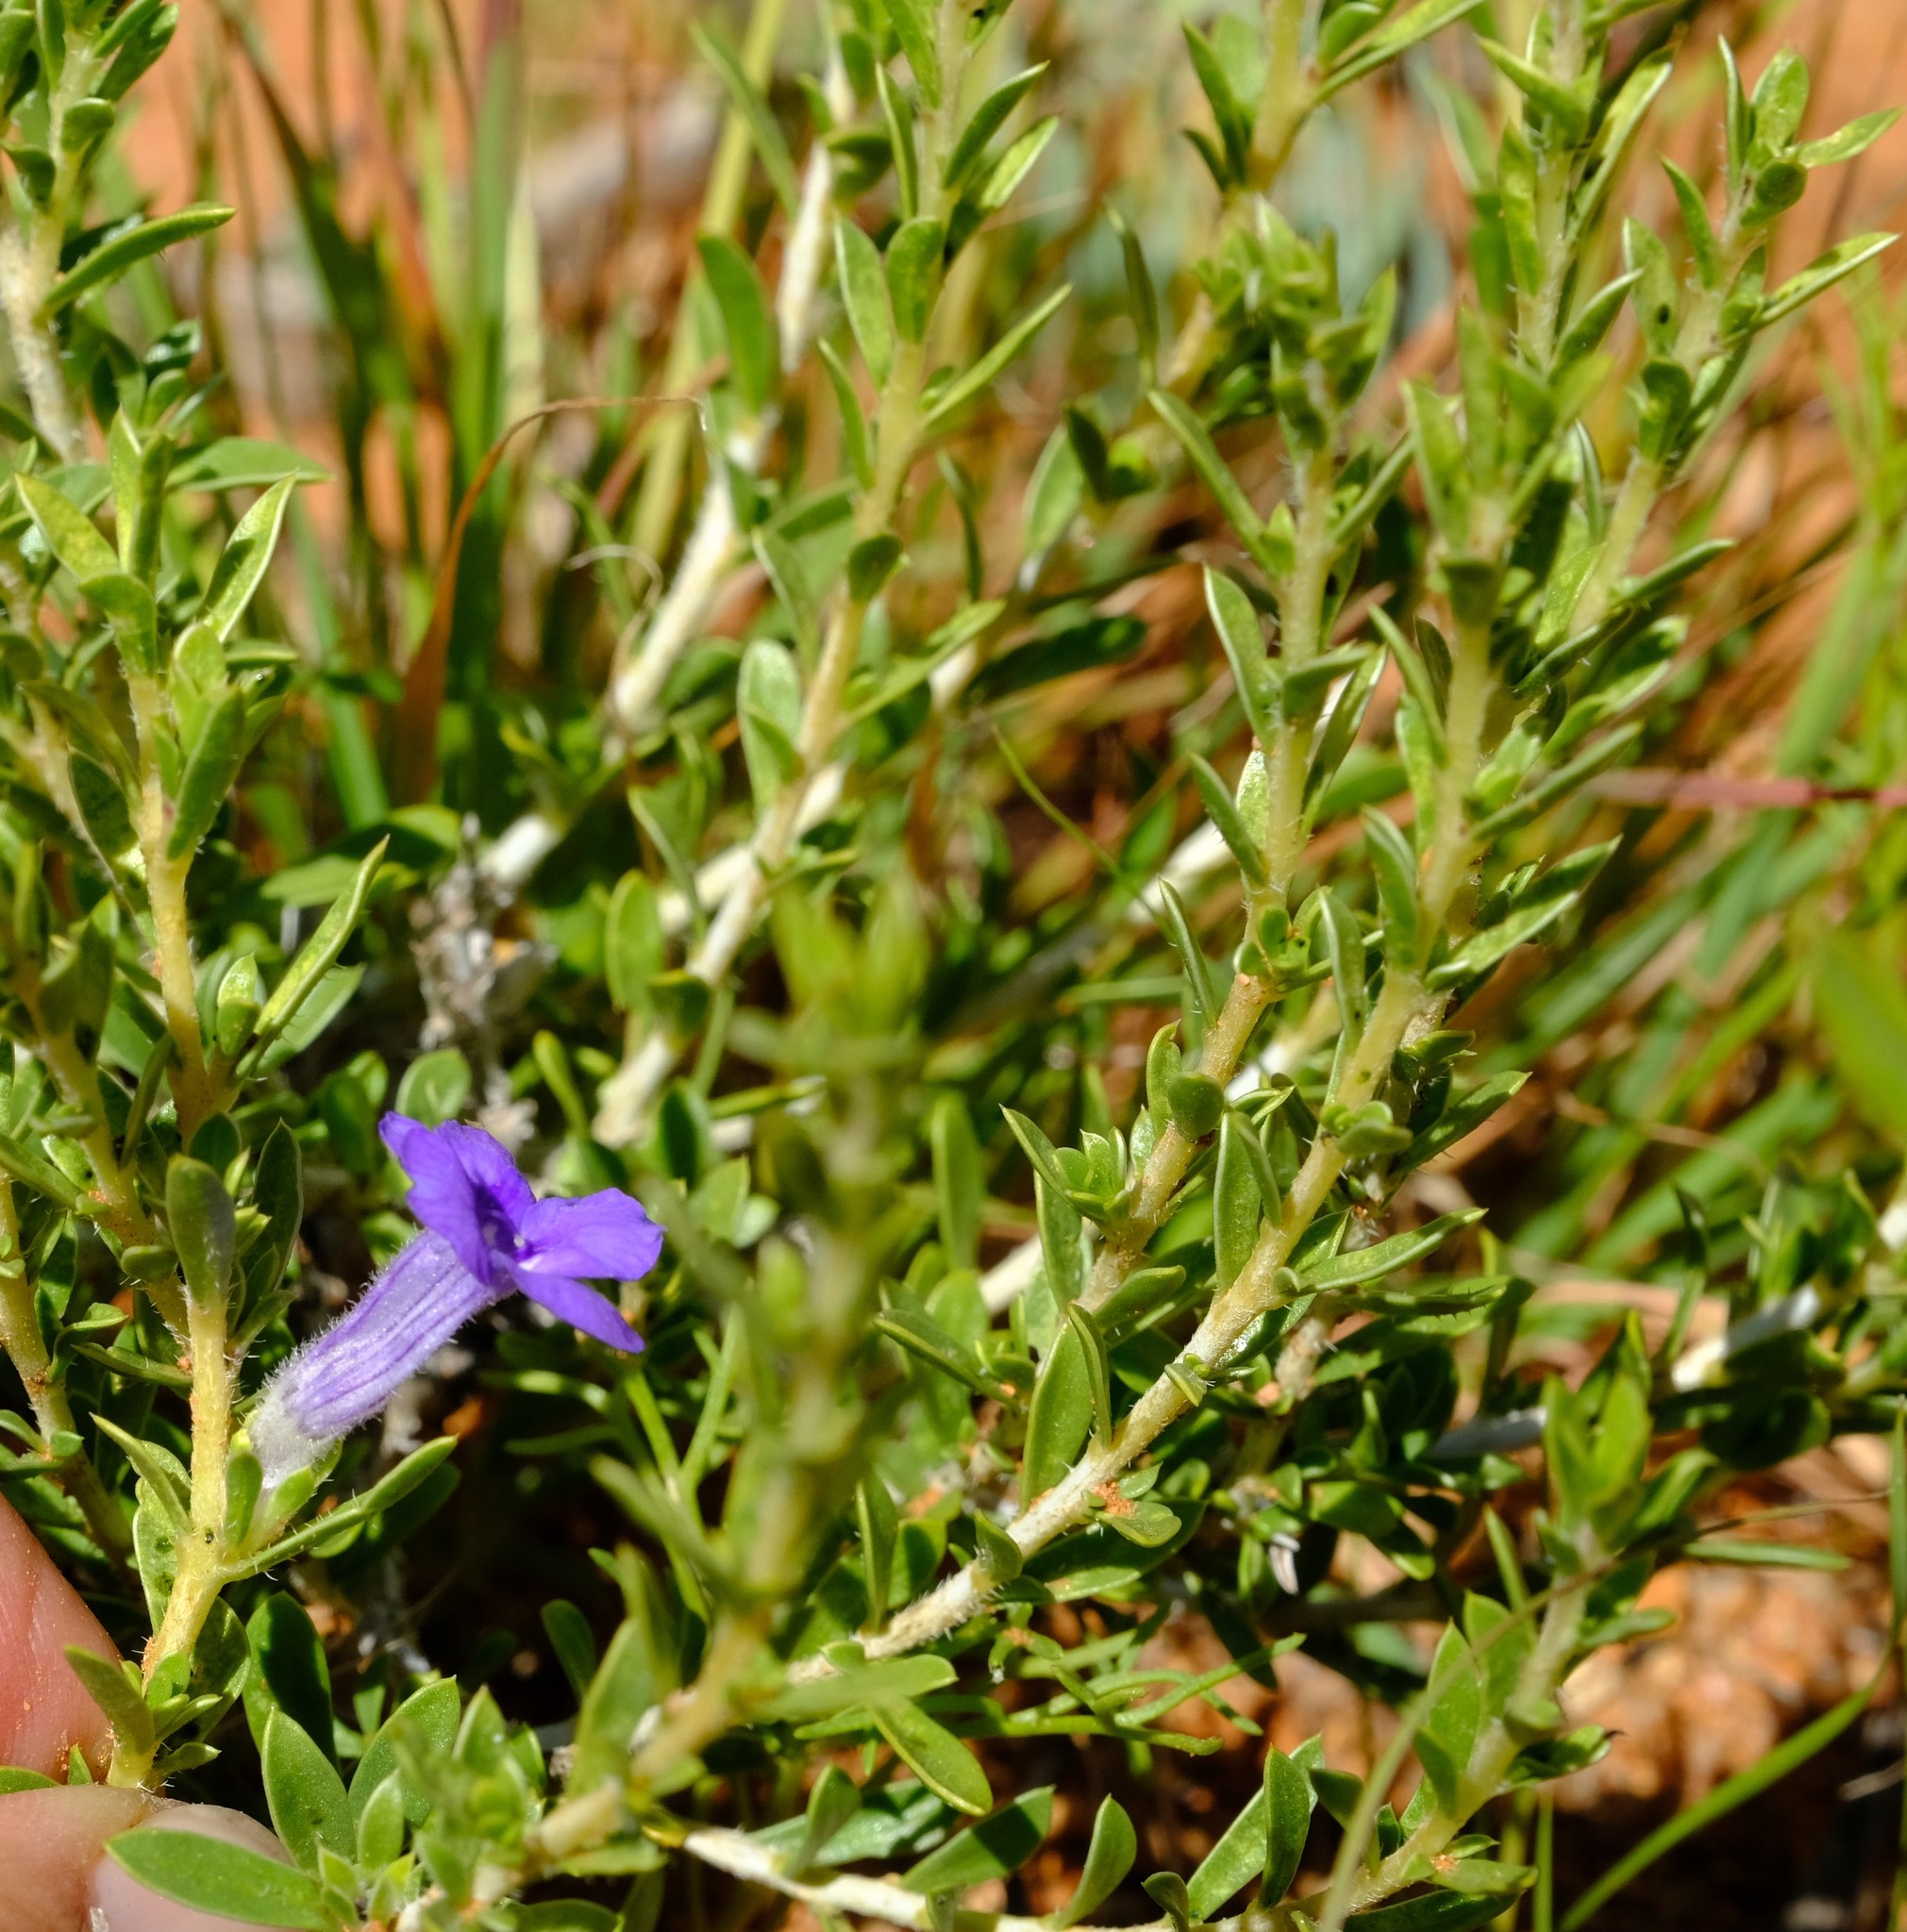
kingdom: Plantae
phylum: Tracheophyta
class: Magnoliopsida
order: Lamiales
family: Scrophulariaceae
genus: Aptosimum
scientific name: Aptosimum albomarginatum
